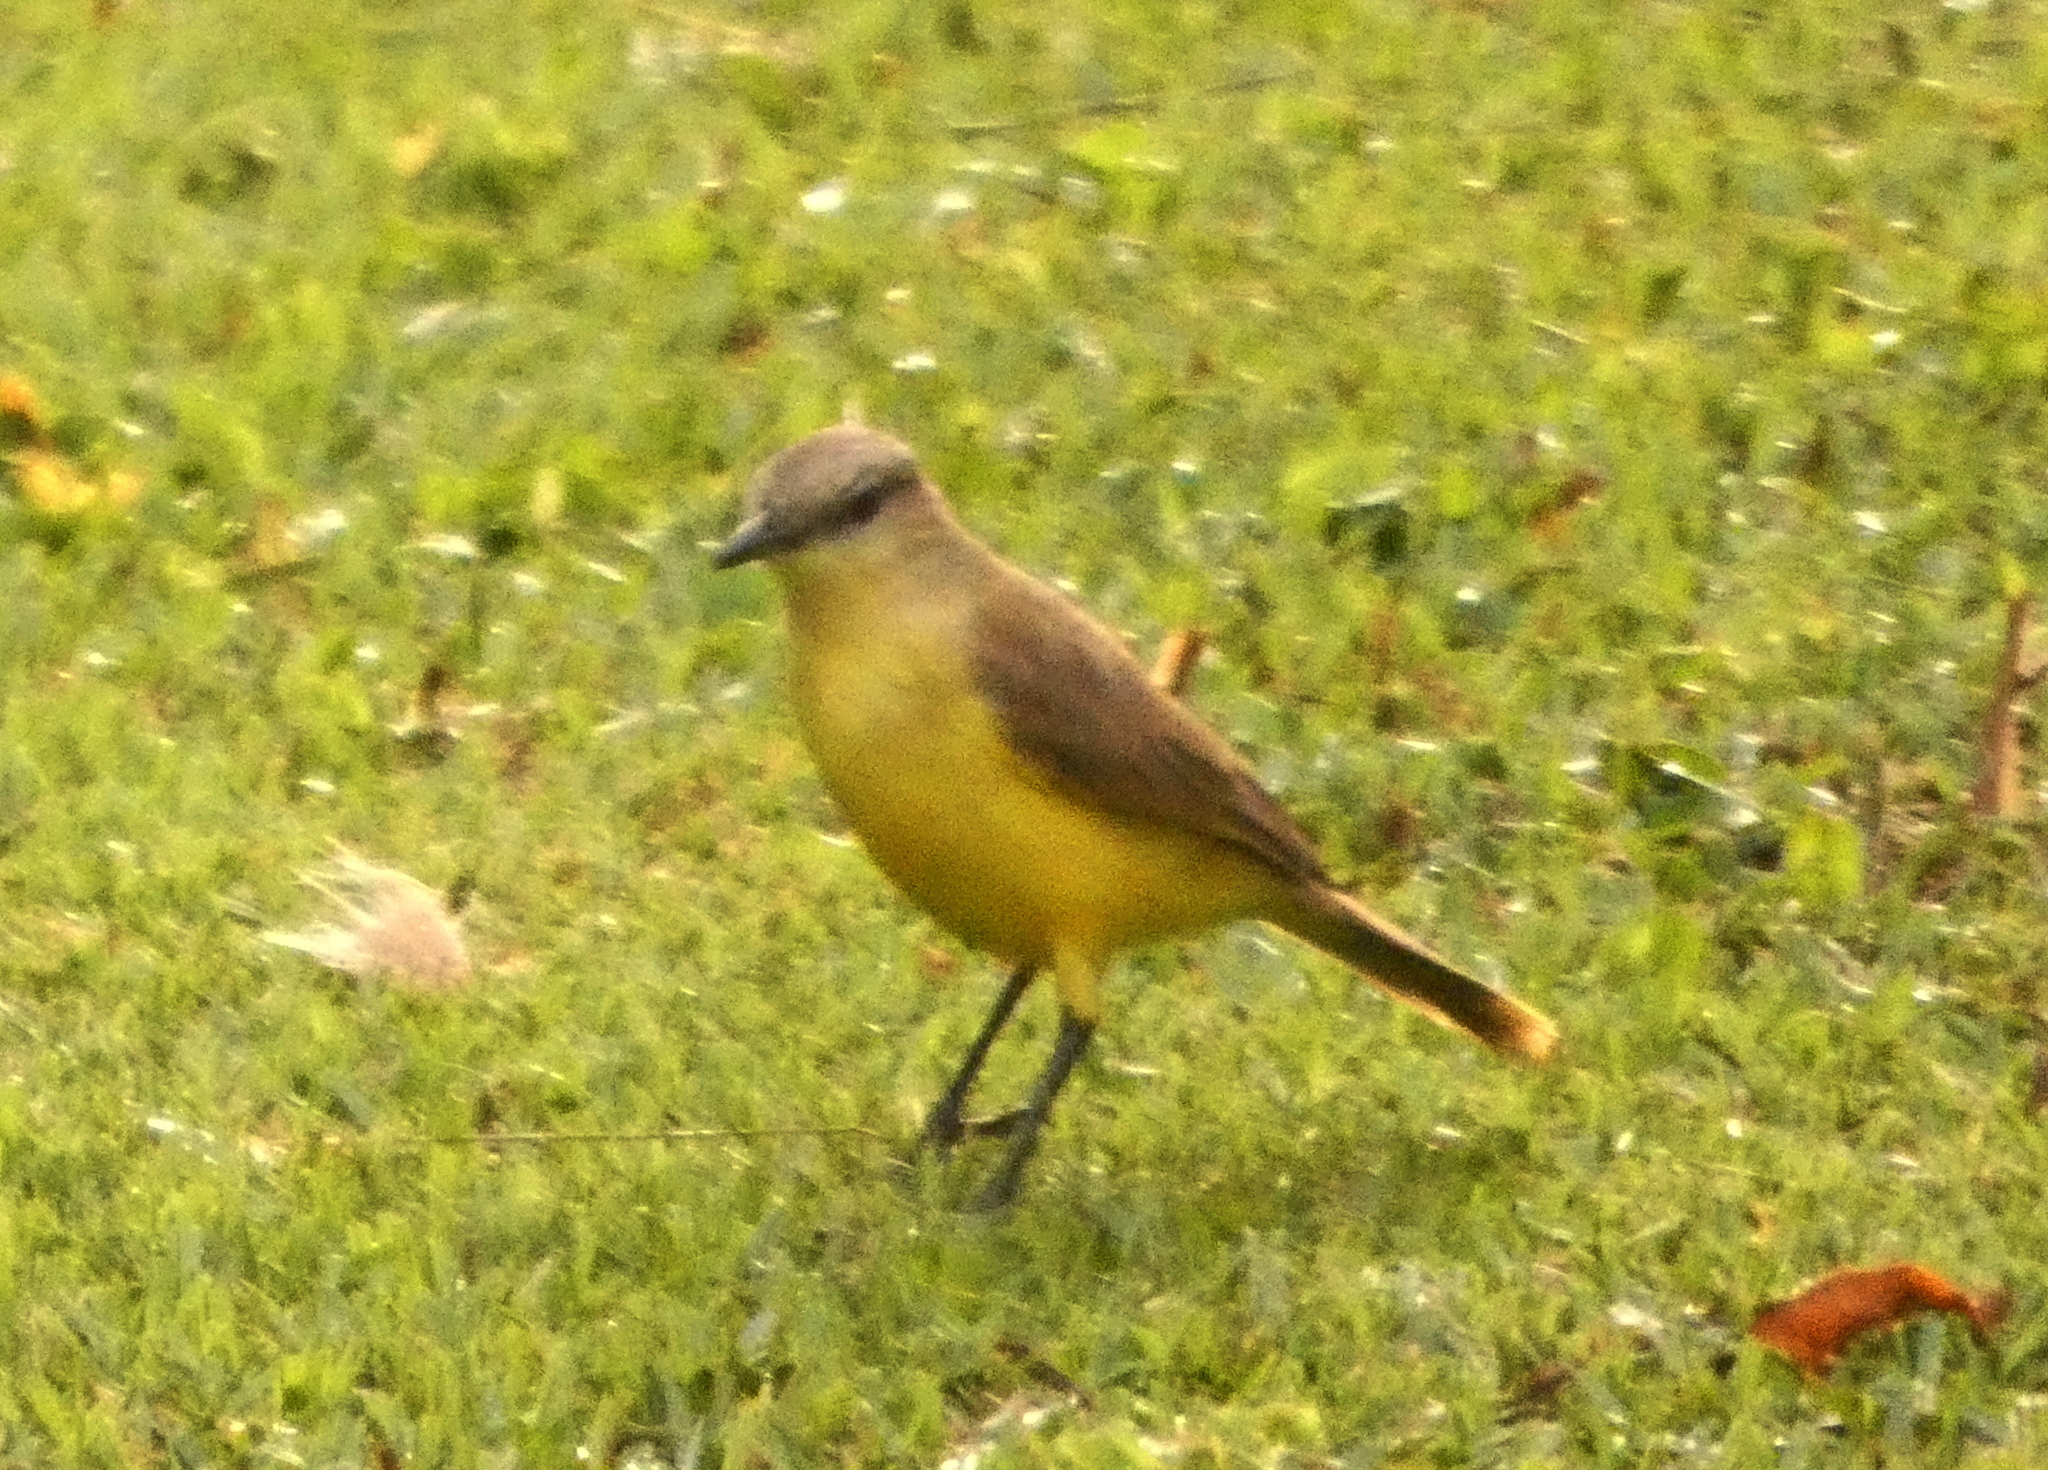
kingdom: Animalia
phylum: Chordata
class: Aves
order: Passeriformes
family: Tyrannidae
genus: Machetornis
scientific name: Machetornis rixosa
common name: Cattle tyrant
